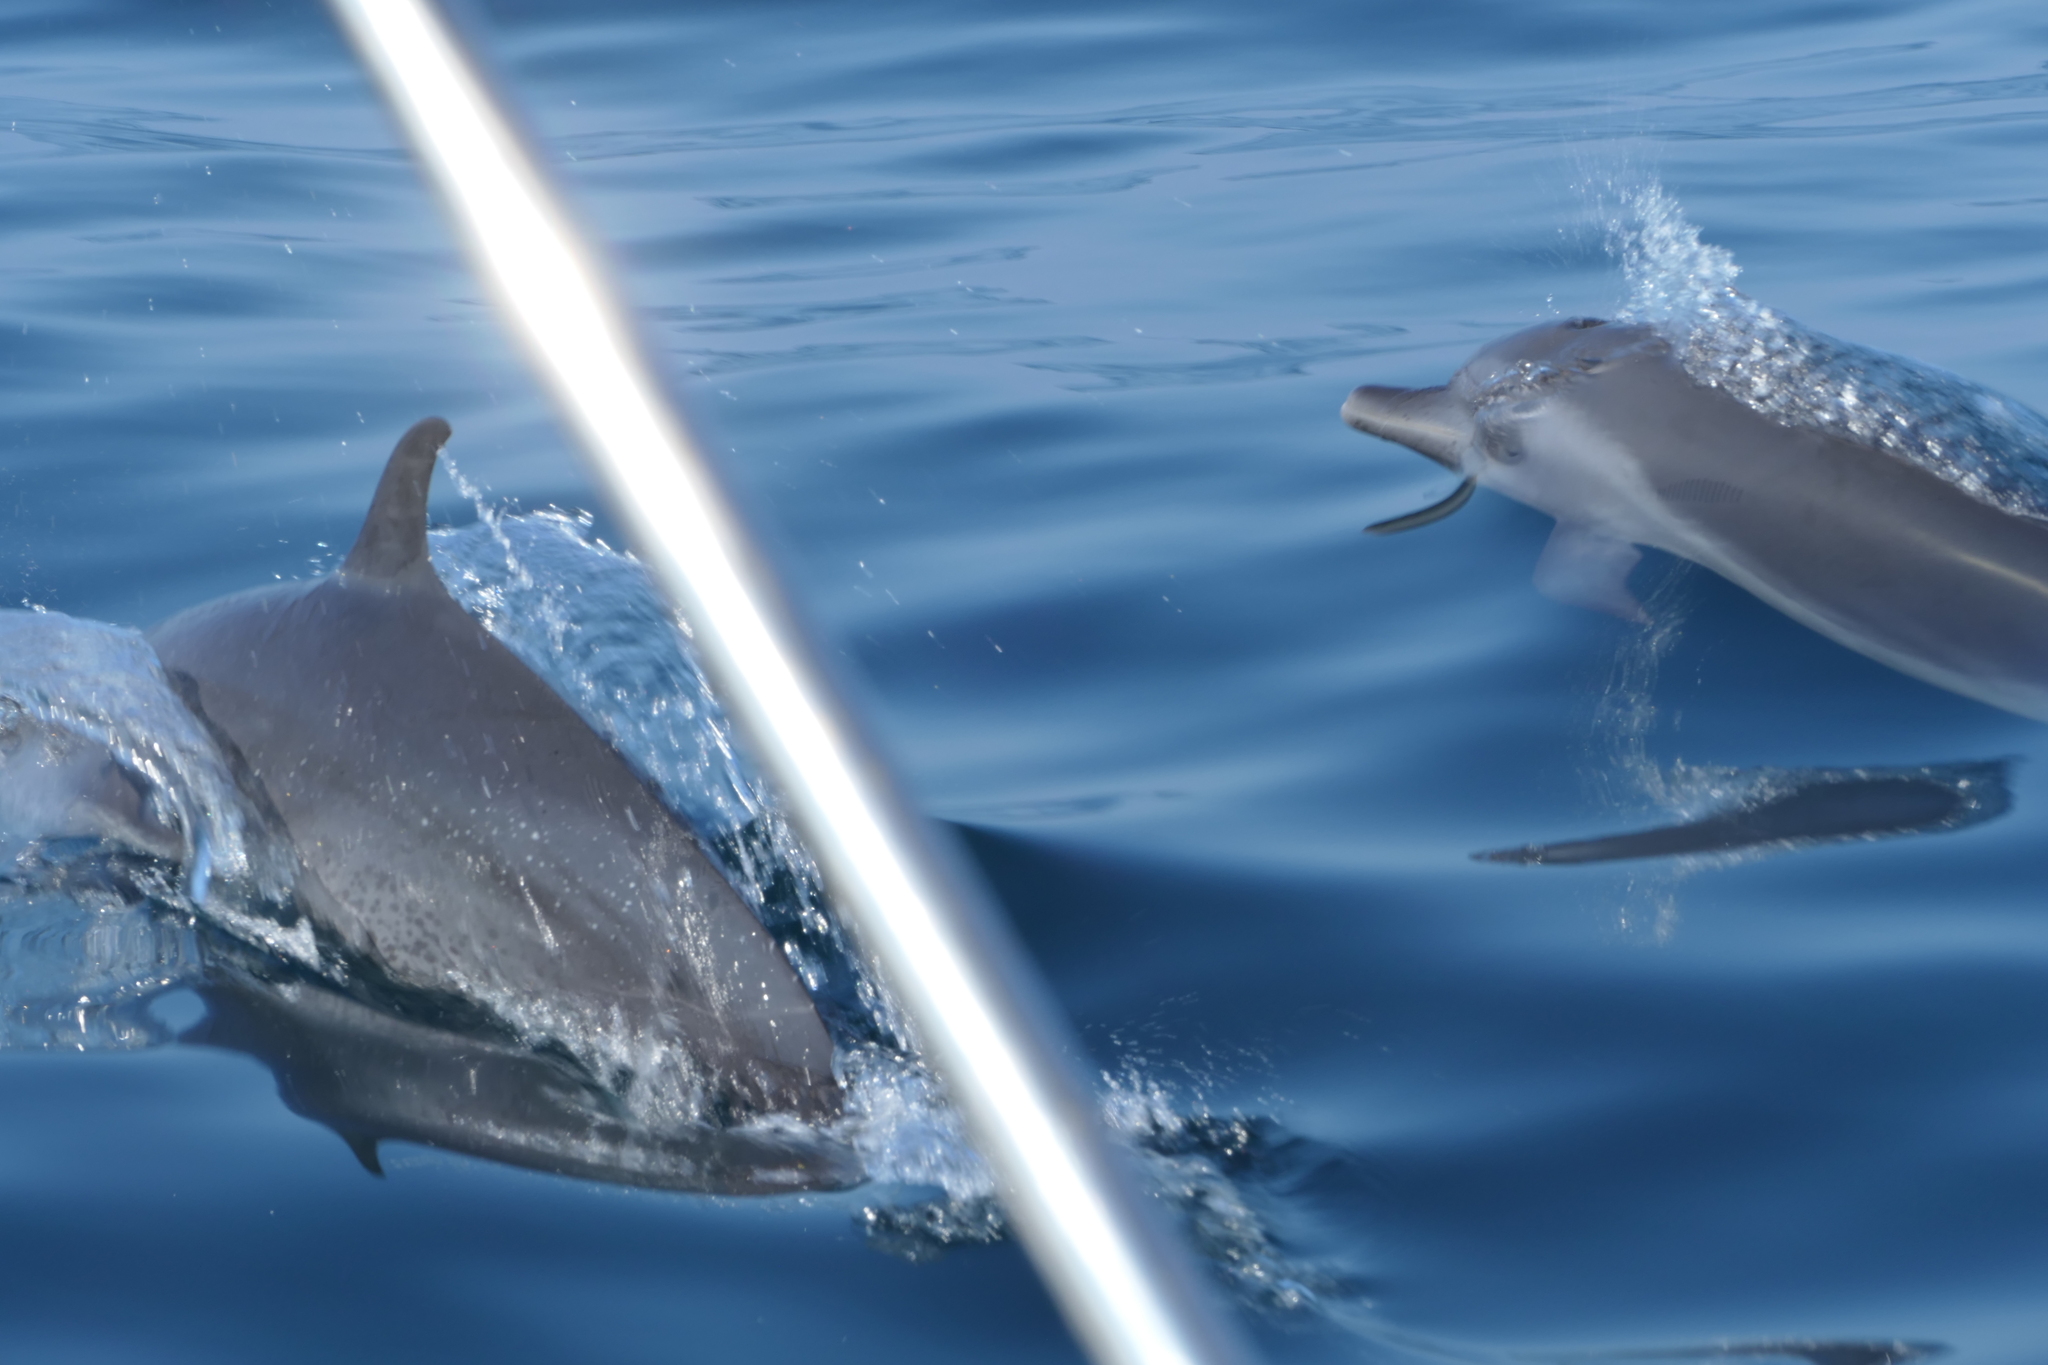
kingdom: Animalia
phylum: Chordata
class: Mammalia
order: Cetacea
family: Delphinidae
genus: Stenella
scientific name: Stenella attenuata
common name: Pantropical spotted dolphin
